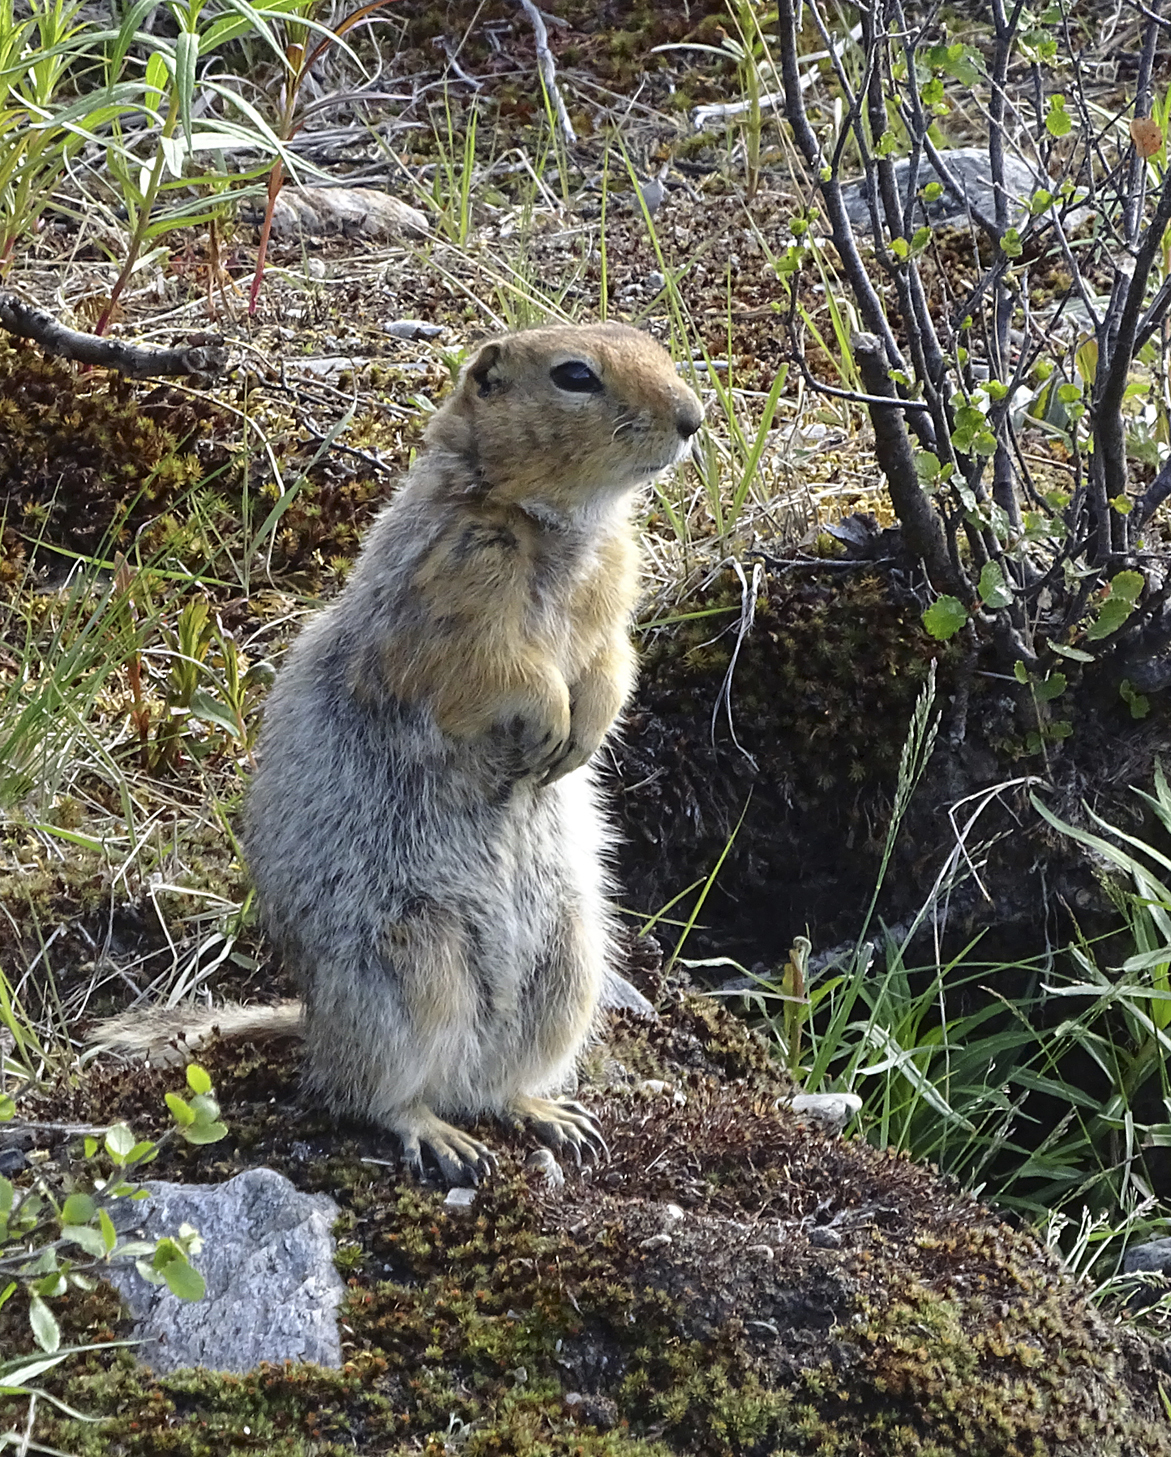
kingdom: Animalia
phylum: Chordata
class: Mammalia
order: Rodentia
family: Sciuridae
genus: Urocitellus
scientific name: Urocitellus parryii
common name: Arctic ground squirrel
